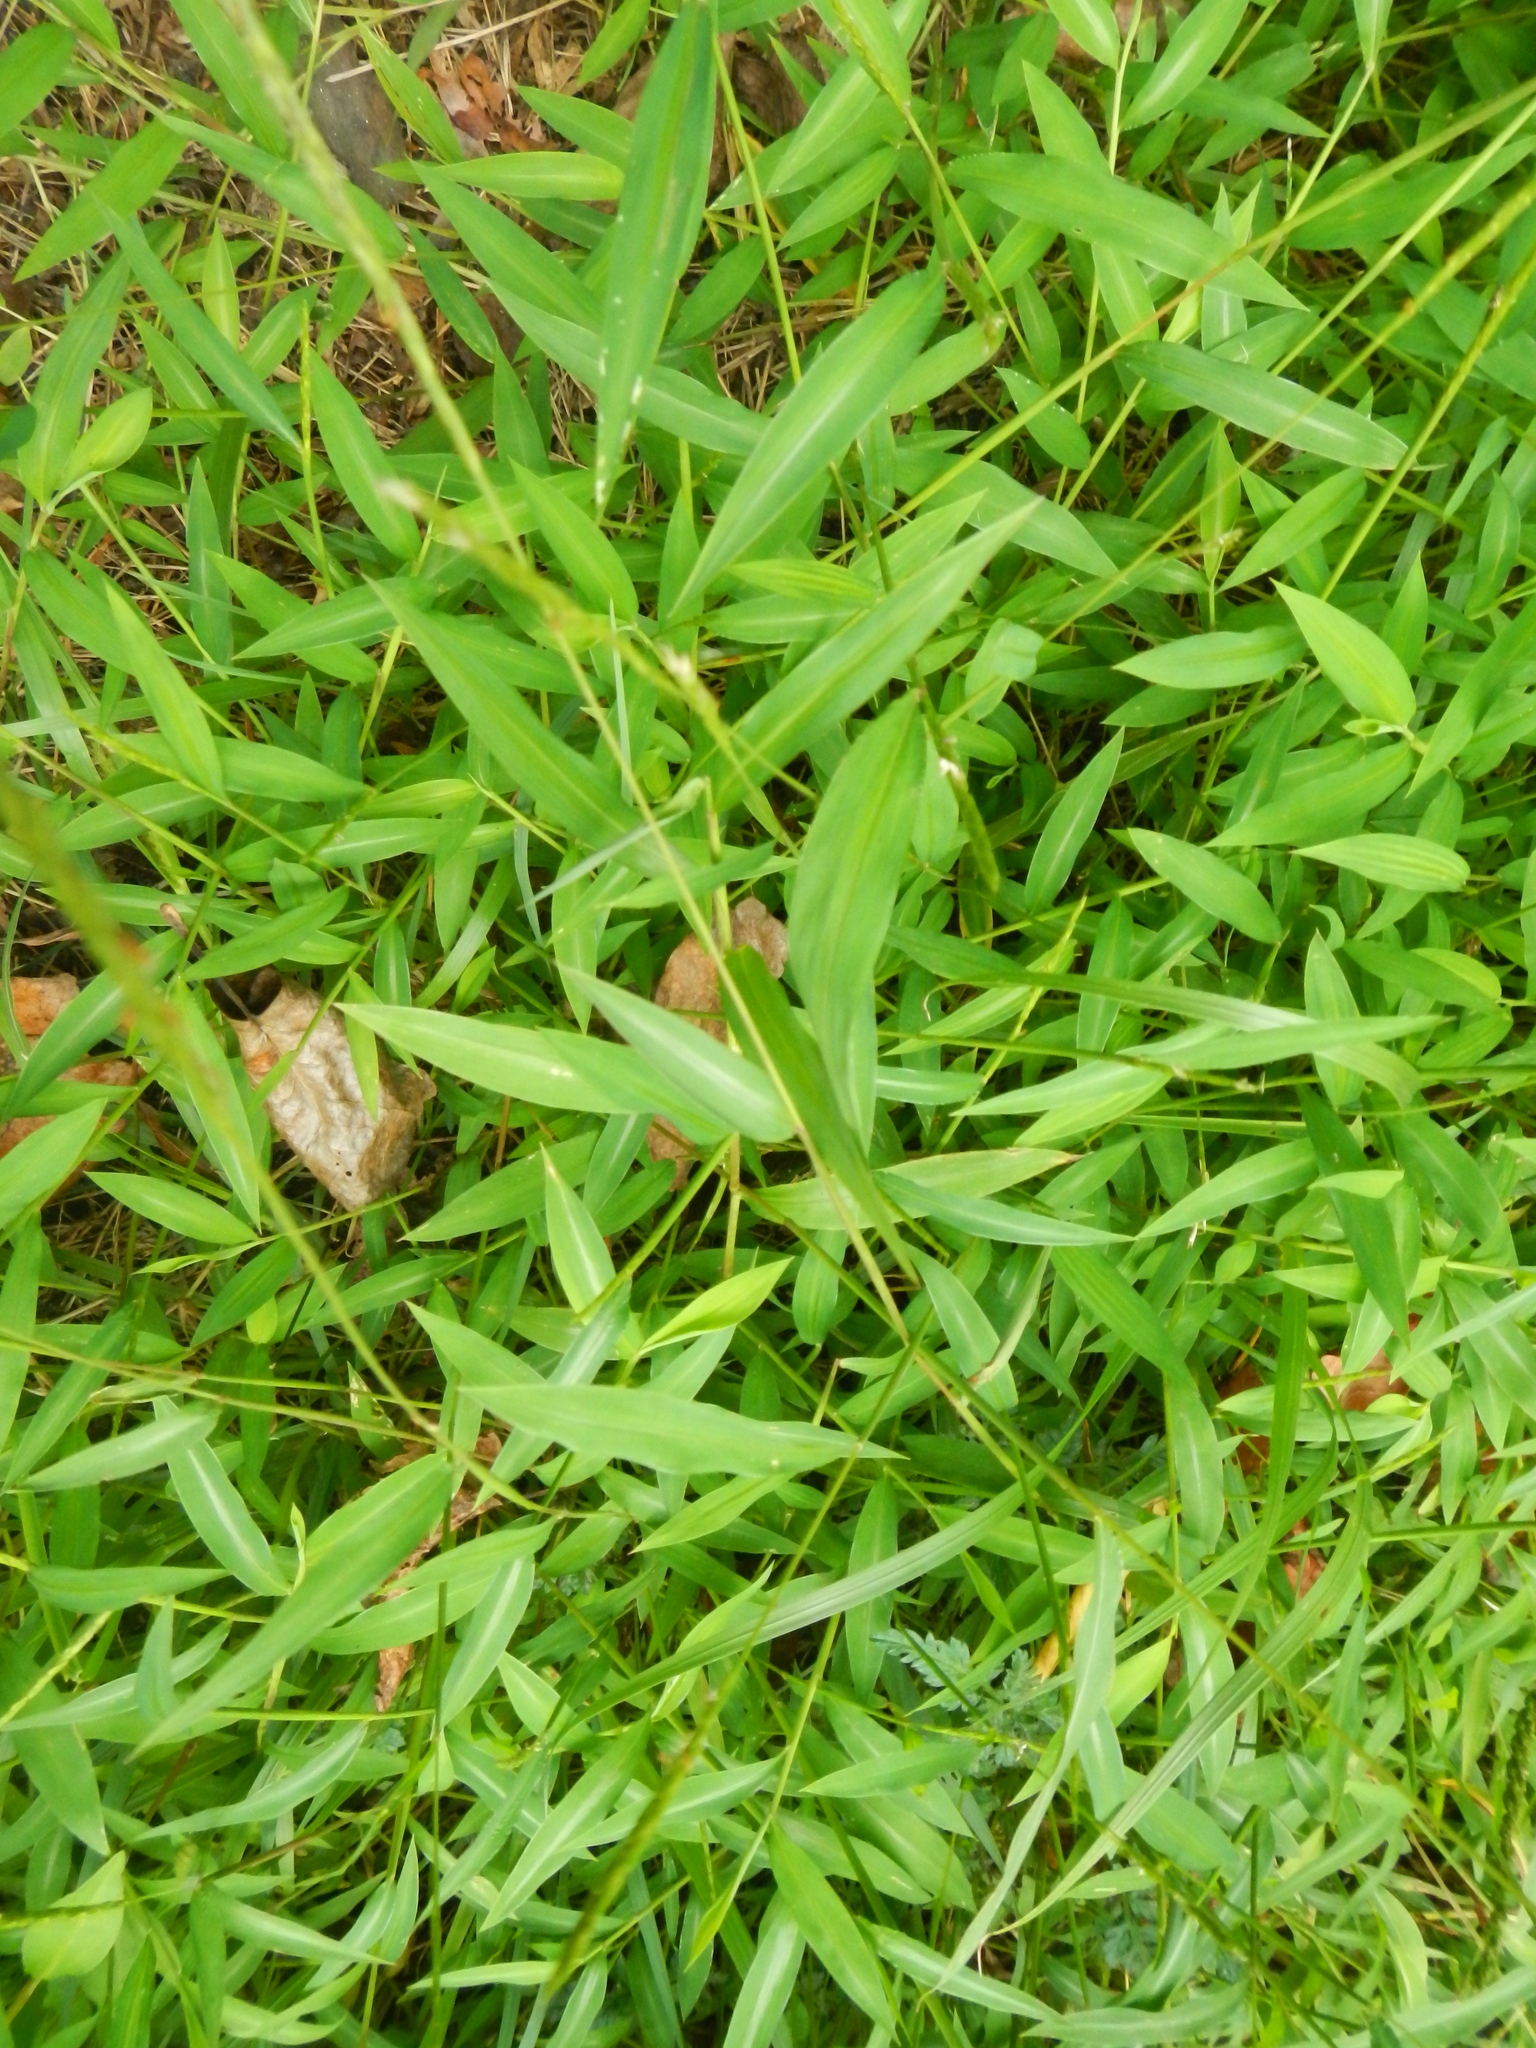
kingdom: Plantae
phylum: Tracheophyta
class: Liliopsida
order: Poales
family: Poaceae
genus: Microstegium
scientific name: Microstegium vimineum
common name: Japanese stiltgrass
